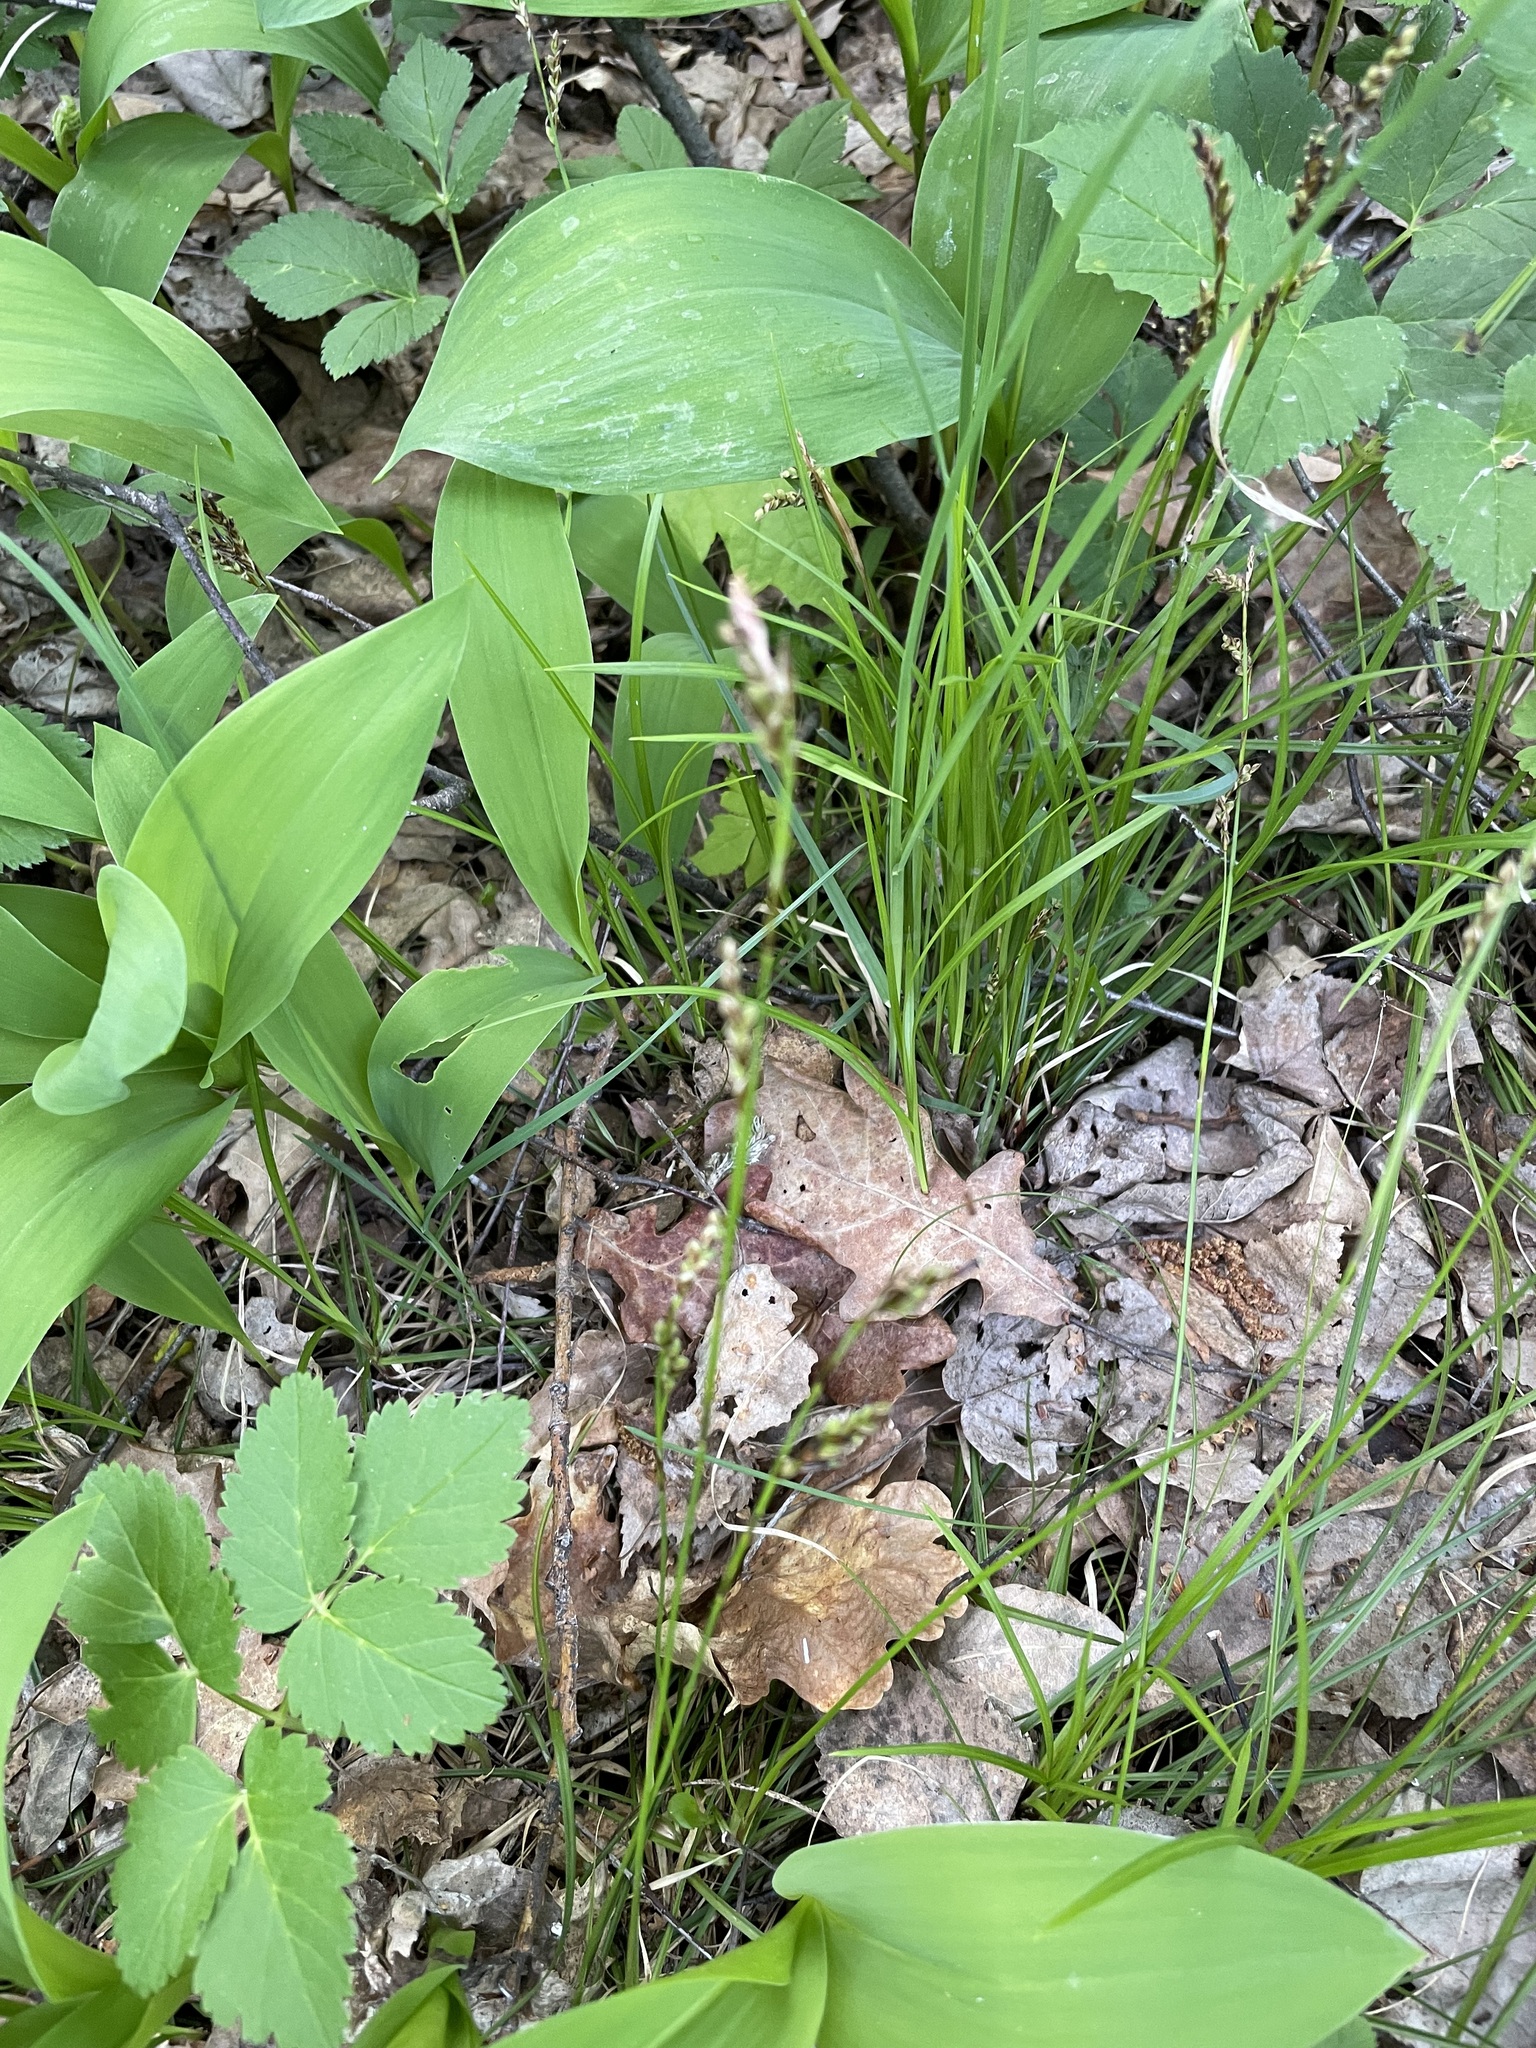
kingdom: Plantae
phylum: Tracheophyta
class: Liliopsida
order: Poales
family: Cyperaceae
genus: Carex
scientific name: Carex digitata
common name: Fingered sedge
